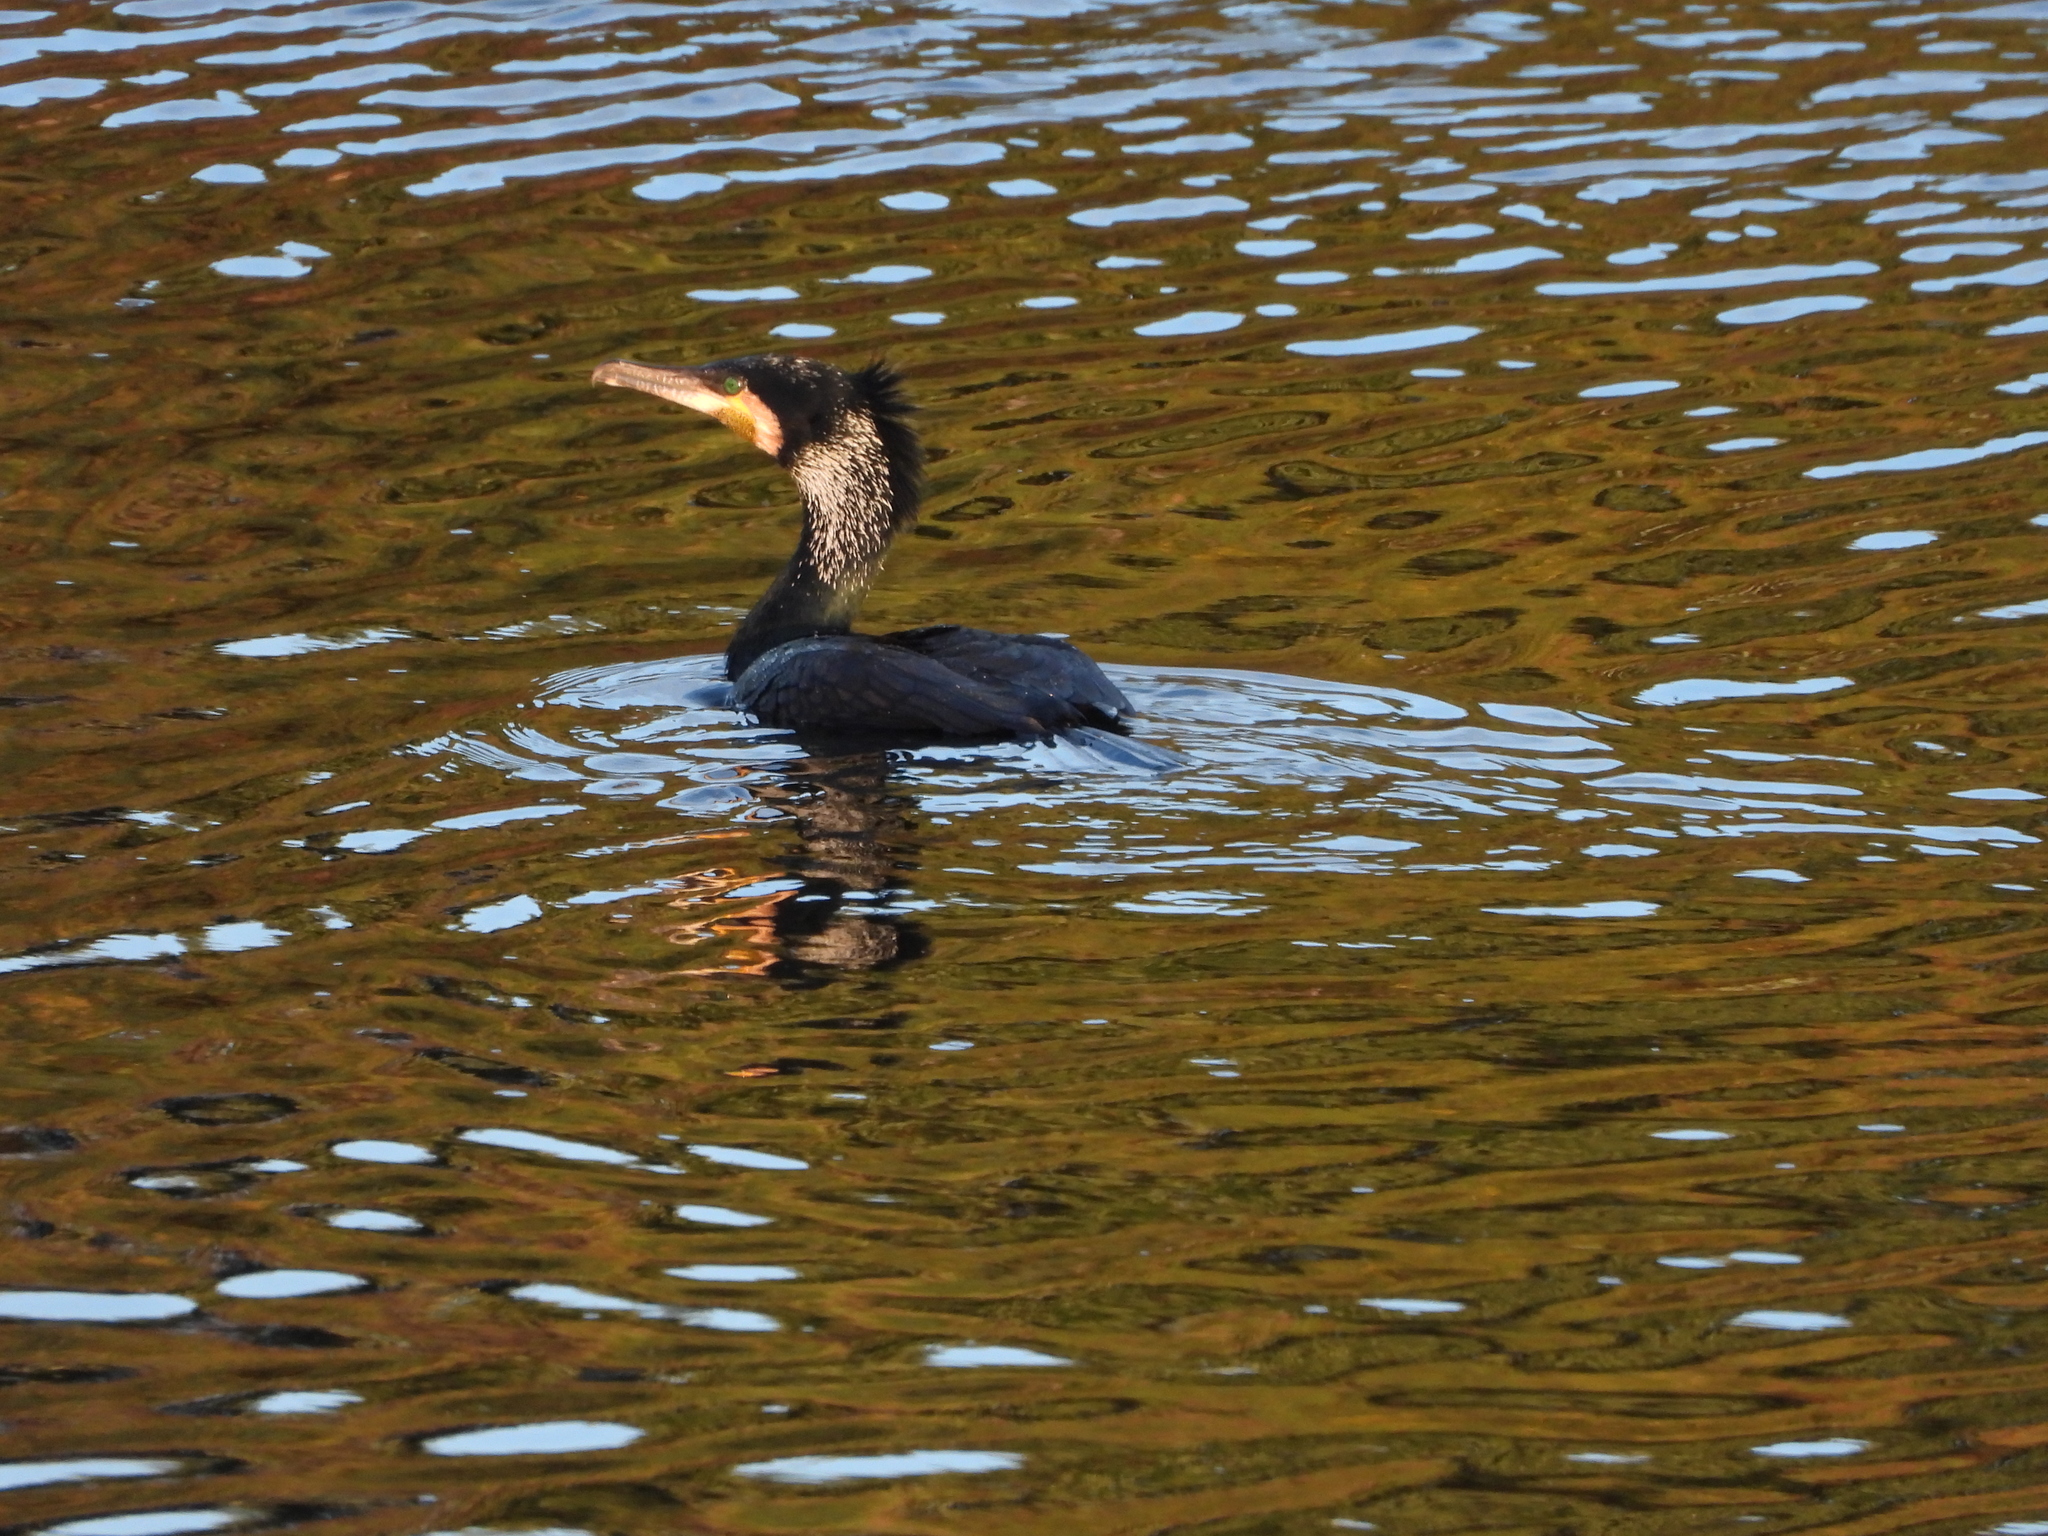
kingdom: Animalia
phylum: Chordata
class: Aves
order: Suliformes
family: Phalacrocoracidae
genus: Phalacrocorax
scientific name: Phalacrocorax carbo
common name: Great cormorant
